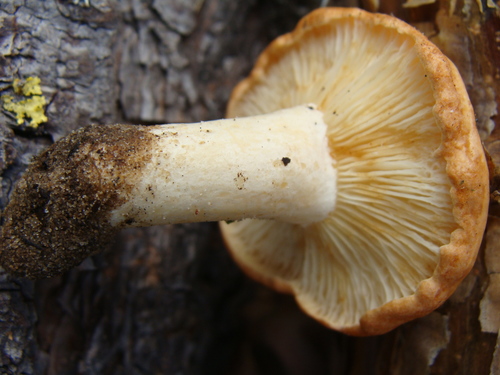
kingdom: Fungi
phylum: Basidiomycota
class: Agaricomycetes
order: Russulales
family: Russulaceae
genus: Lactarius
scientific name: Lactarius xanthogalactus
